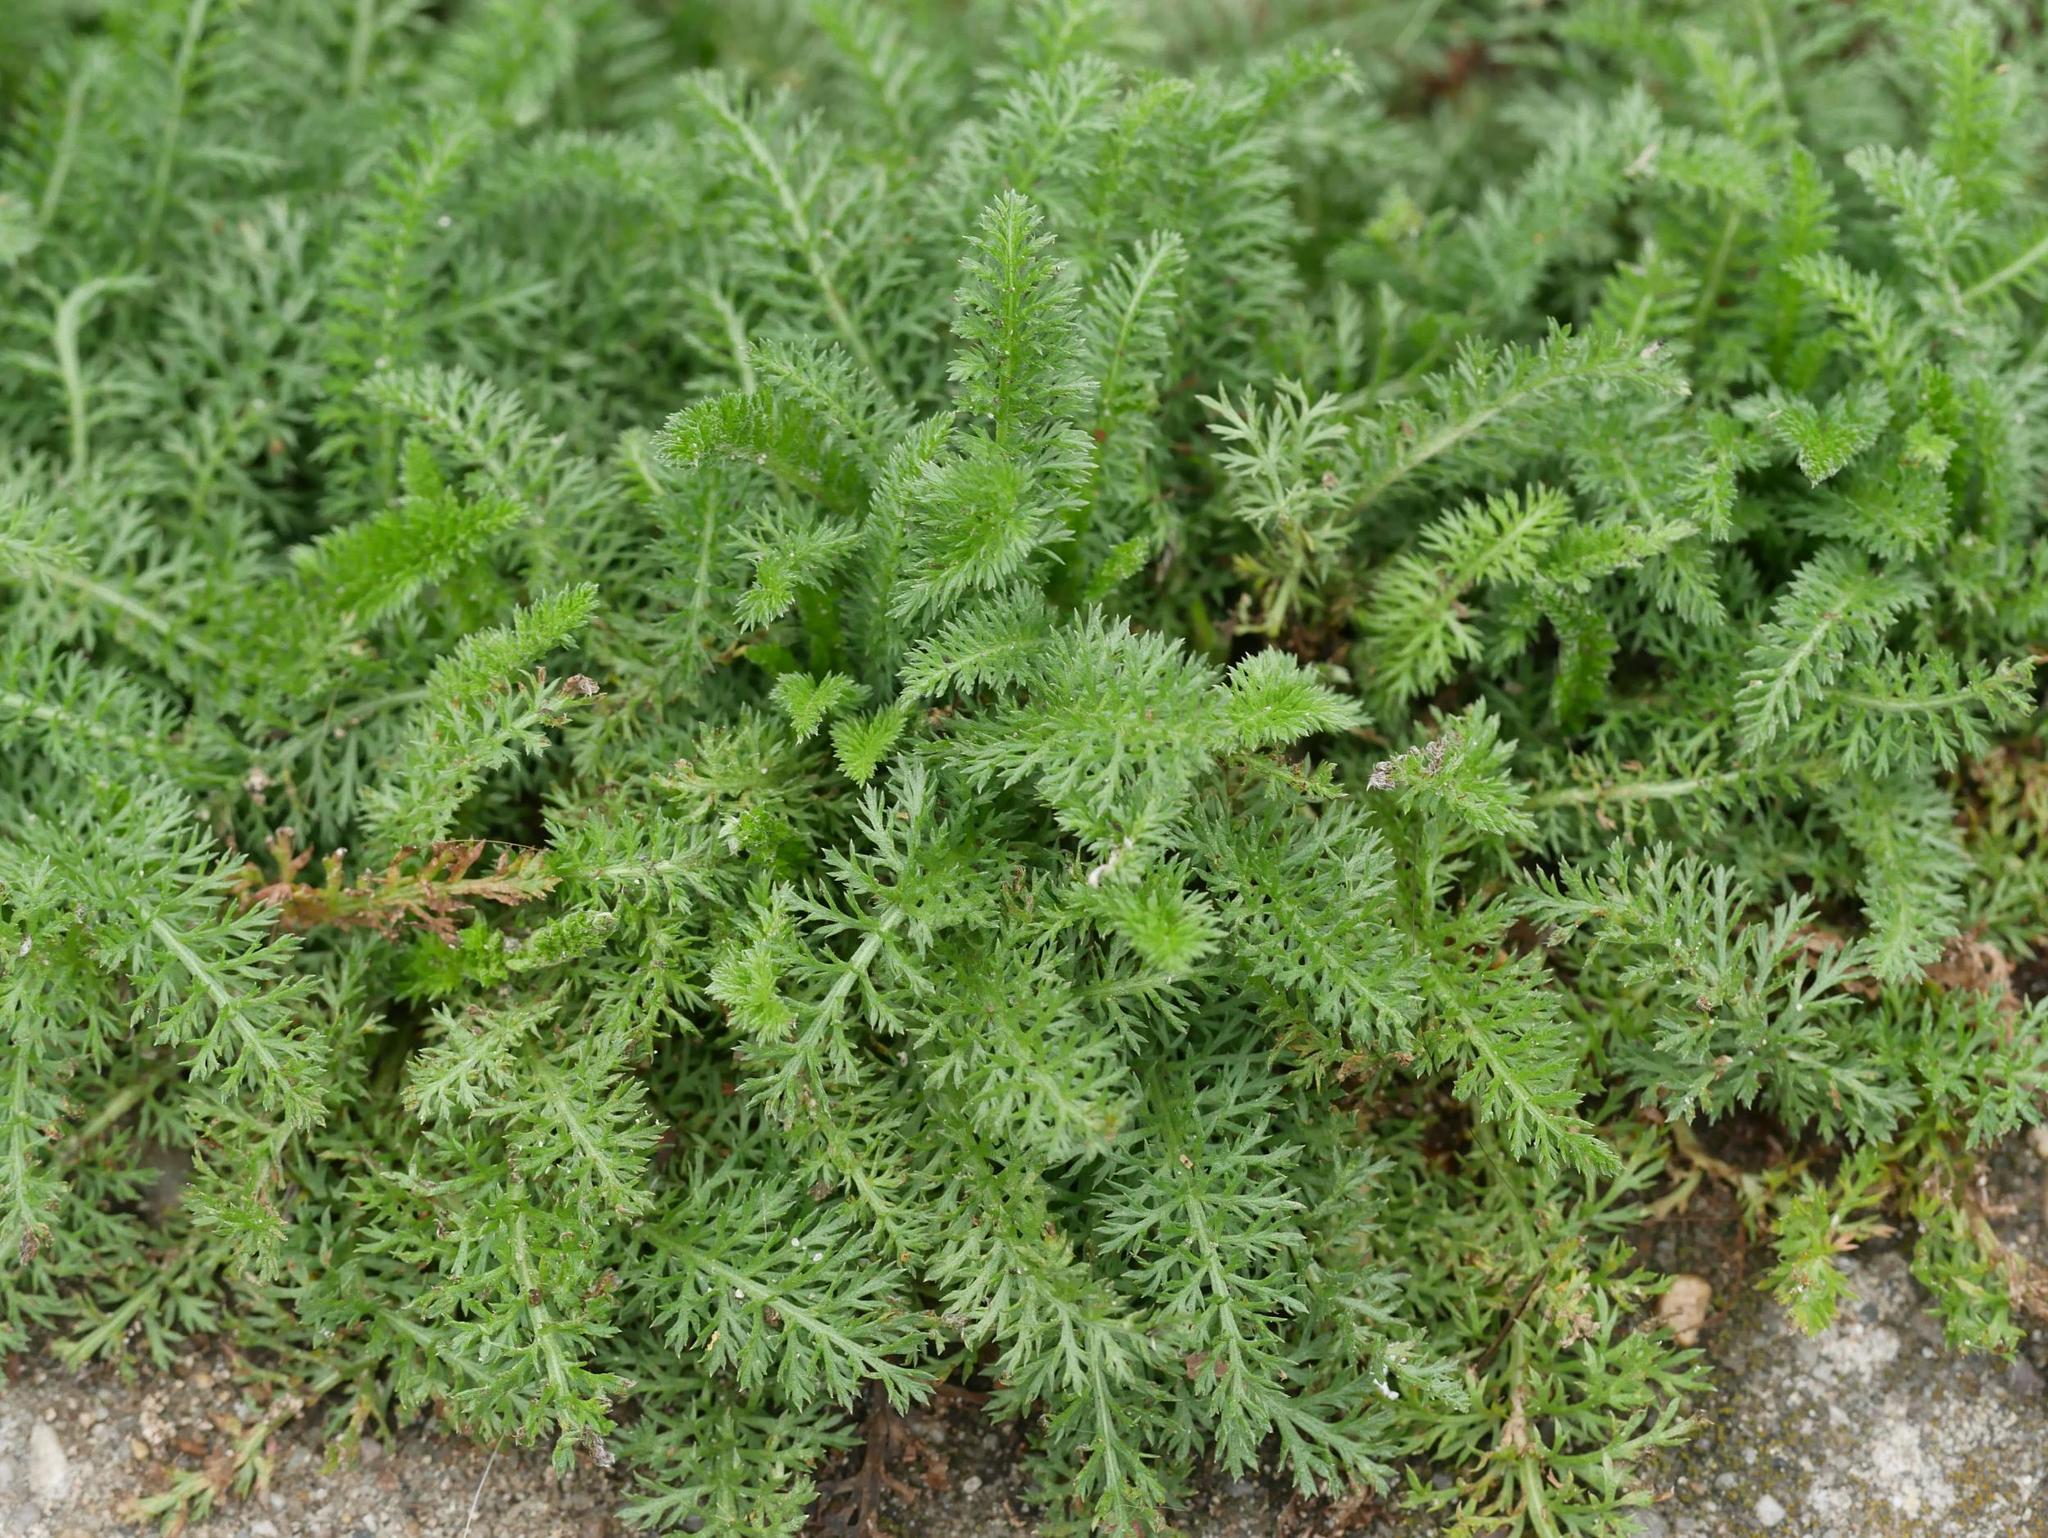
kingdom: Plantae
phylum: Tracheophyta
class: Magnoliopsida
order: Asterales
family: Asteraceae
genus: Achillea
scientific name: Achillea millefolium
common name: Yarrow
